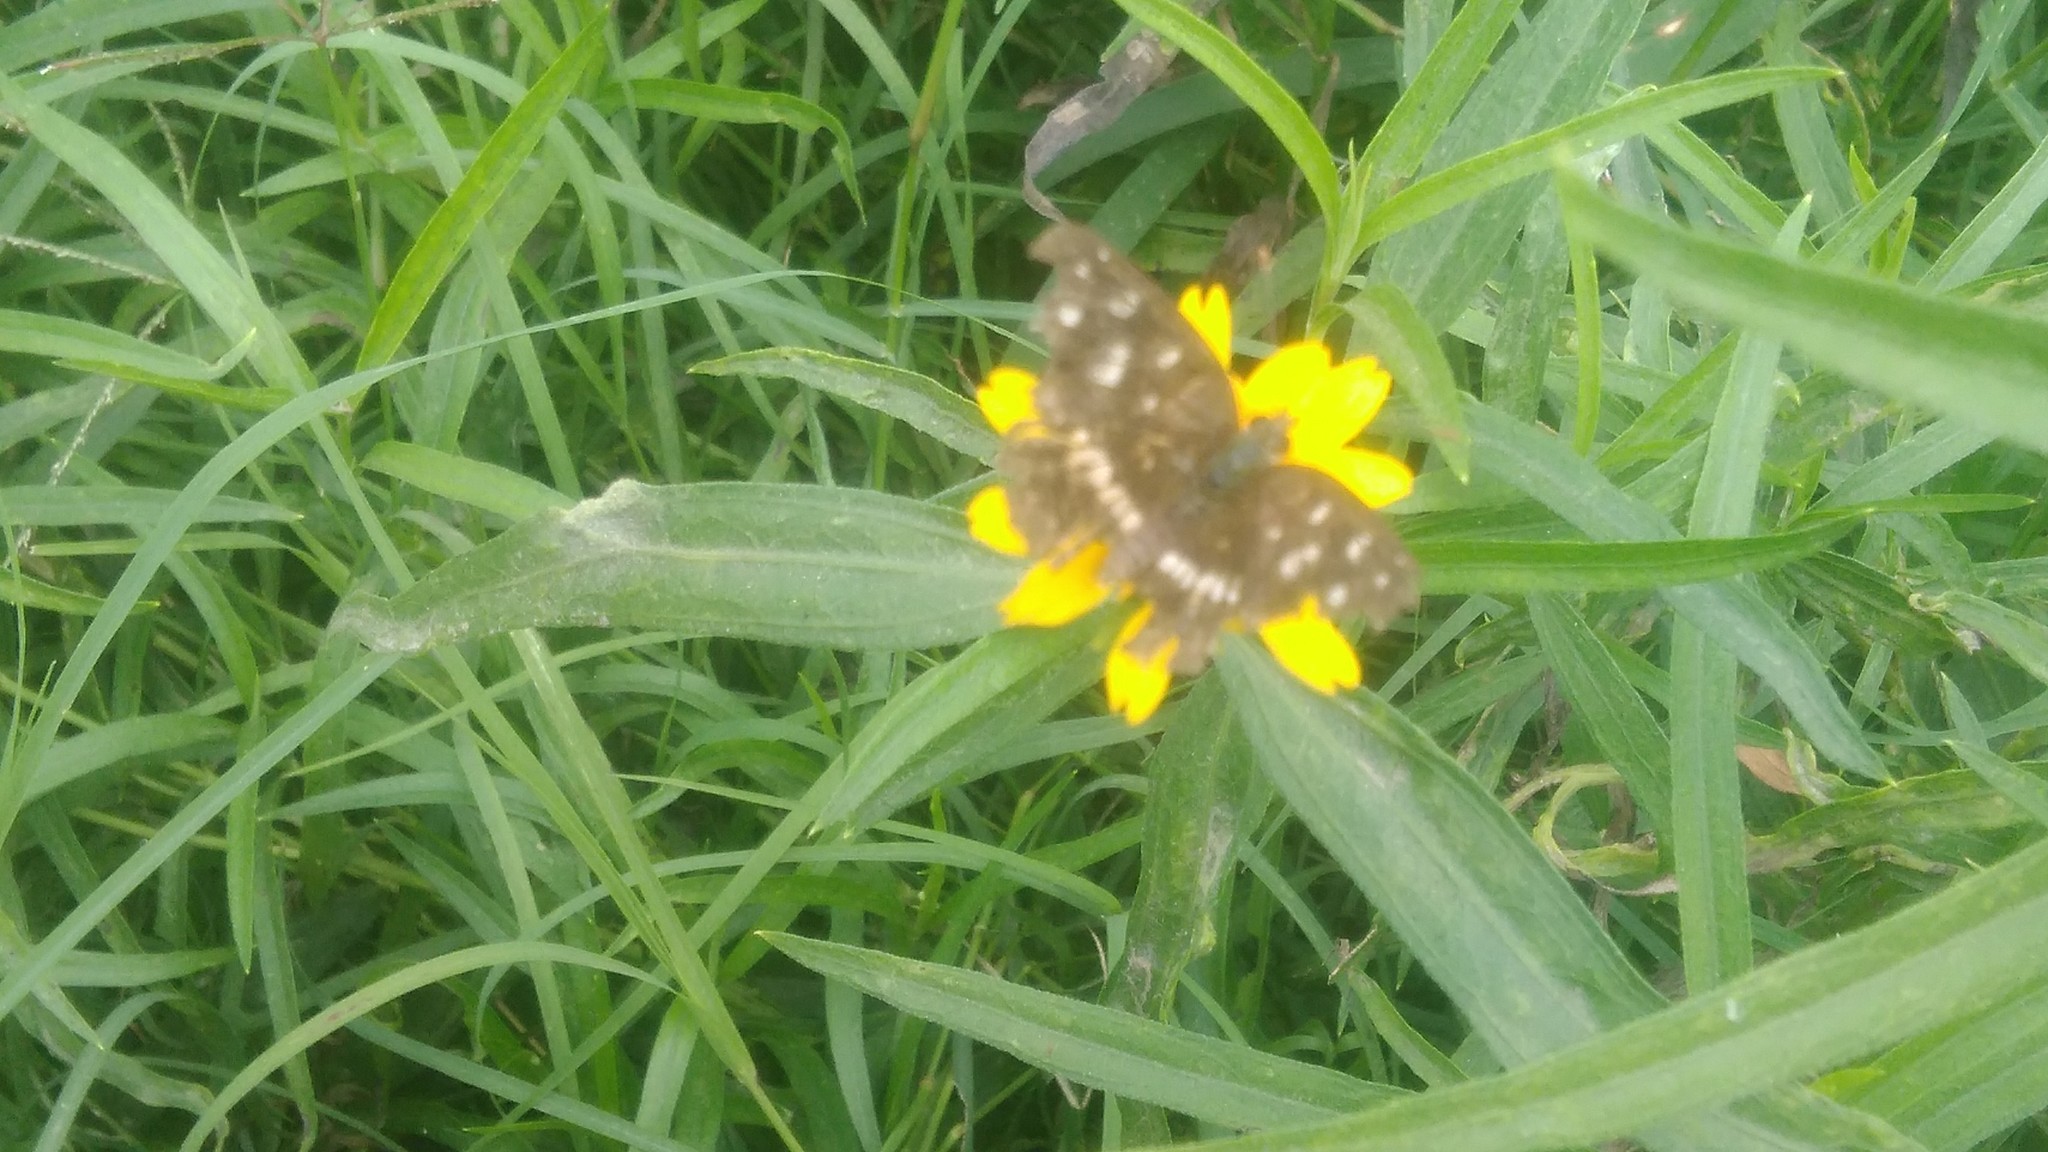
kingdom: Animalia
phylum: Arthropoda
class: Insecta
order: Lepidoptera
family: Nymphalidae
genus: Ortilia
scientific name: Ortilia ithra
